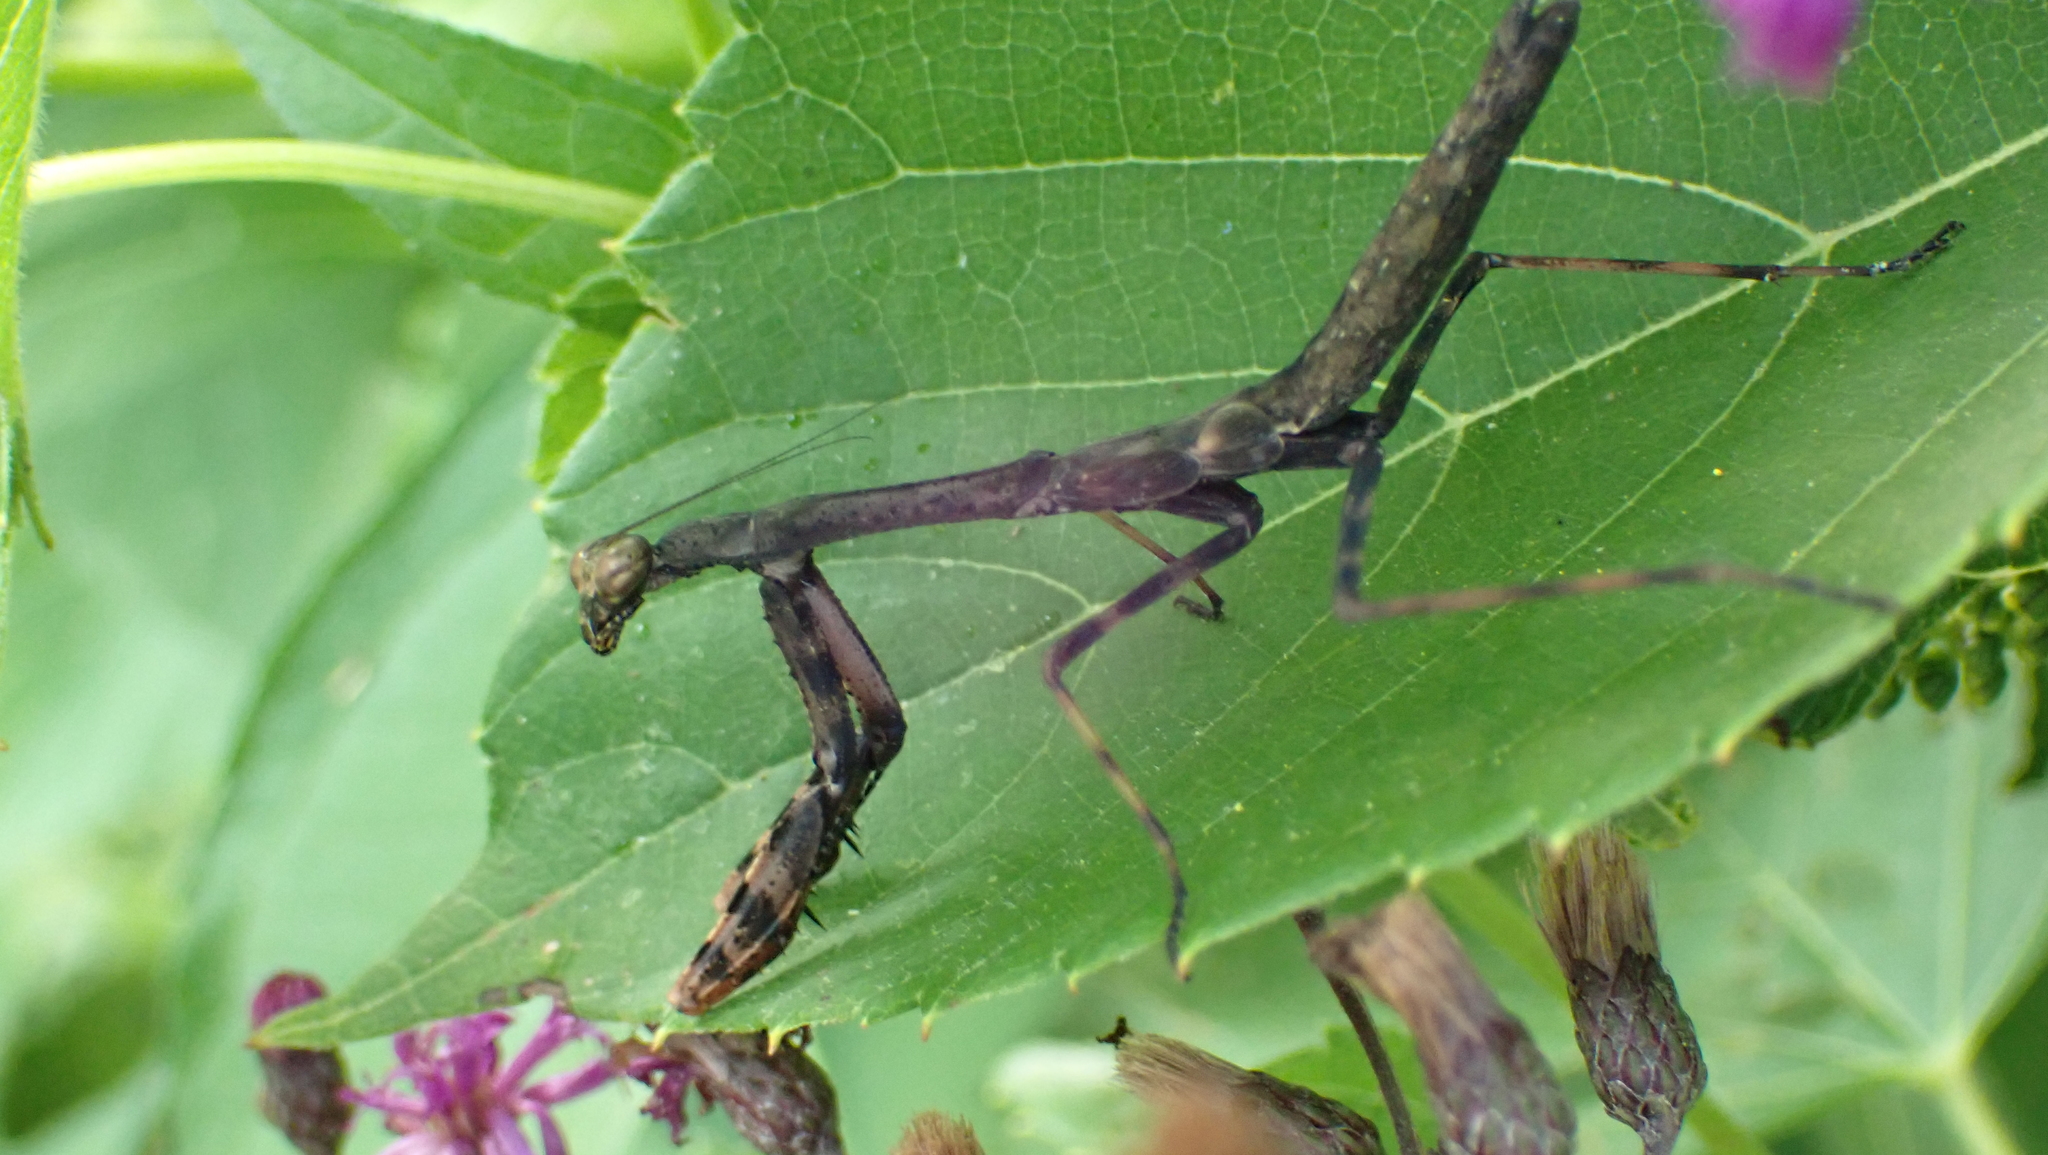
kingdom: Animalia
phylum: Arthropoda
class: Insecta
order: Mantodea
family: Mantidae
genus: Stagmomantis
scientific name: Stagmomantis carolina
